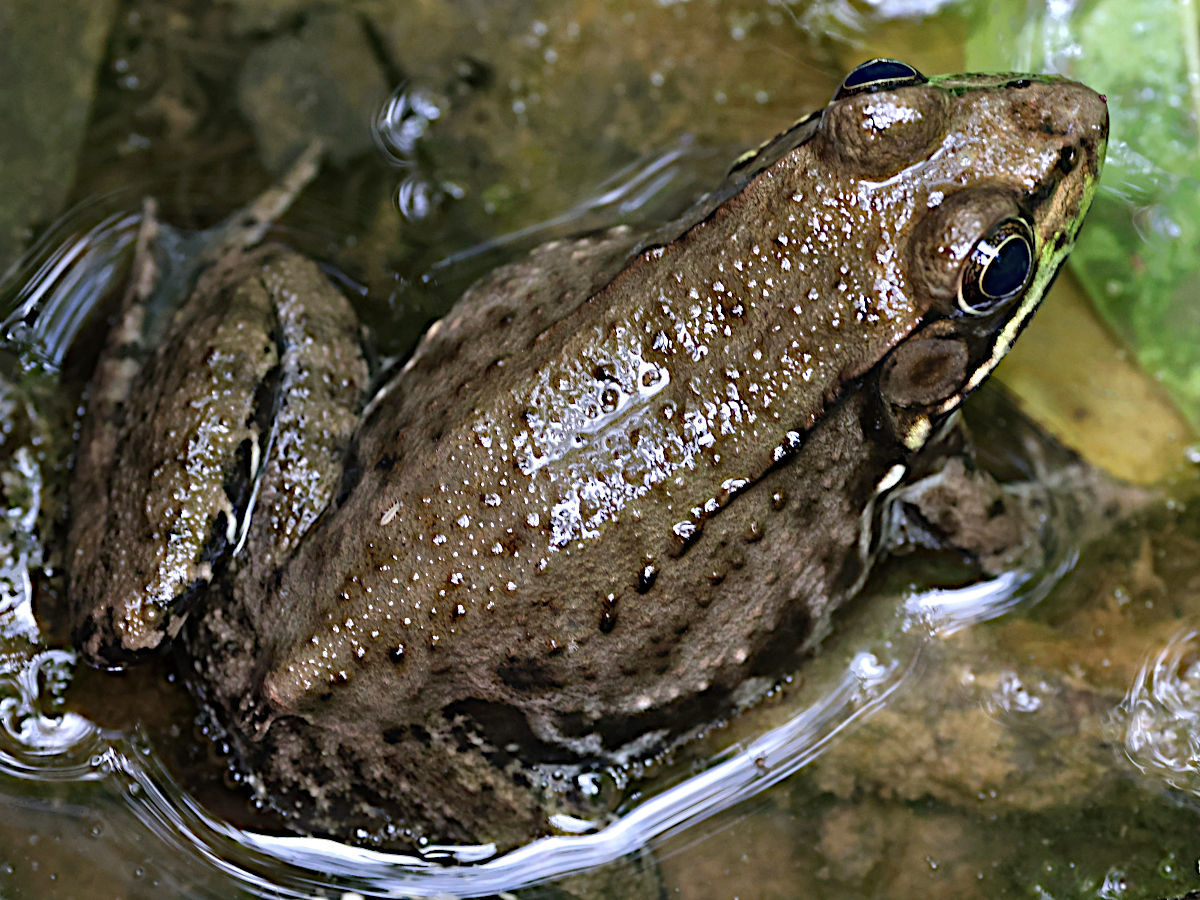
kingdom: Animalia
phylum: Chordata
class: Amphibia
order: Anura
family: Ranidae
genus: Lithobates
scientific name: Lithobates clamitans
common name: Green frog
